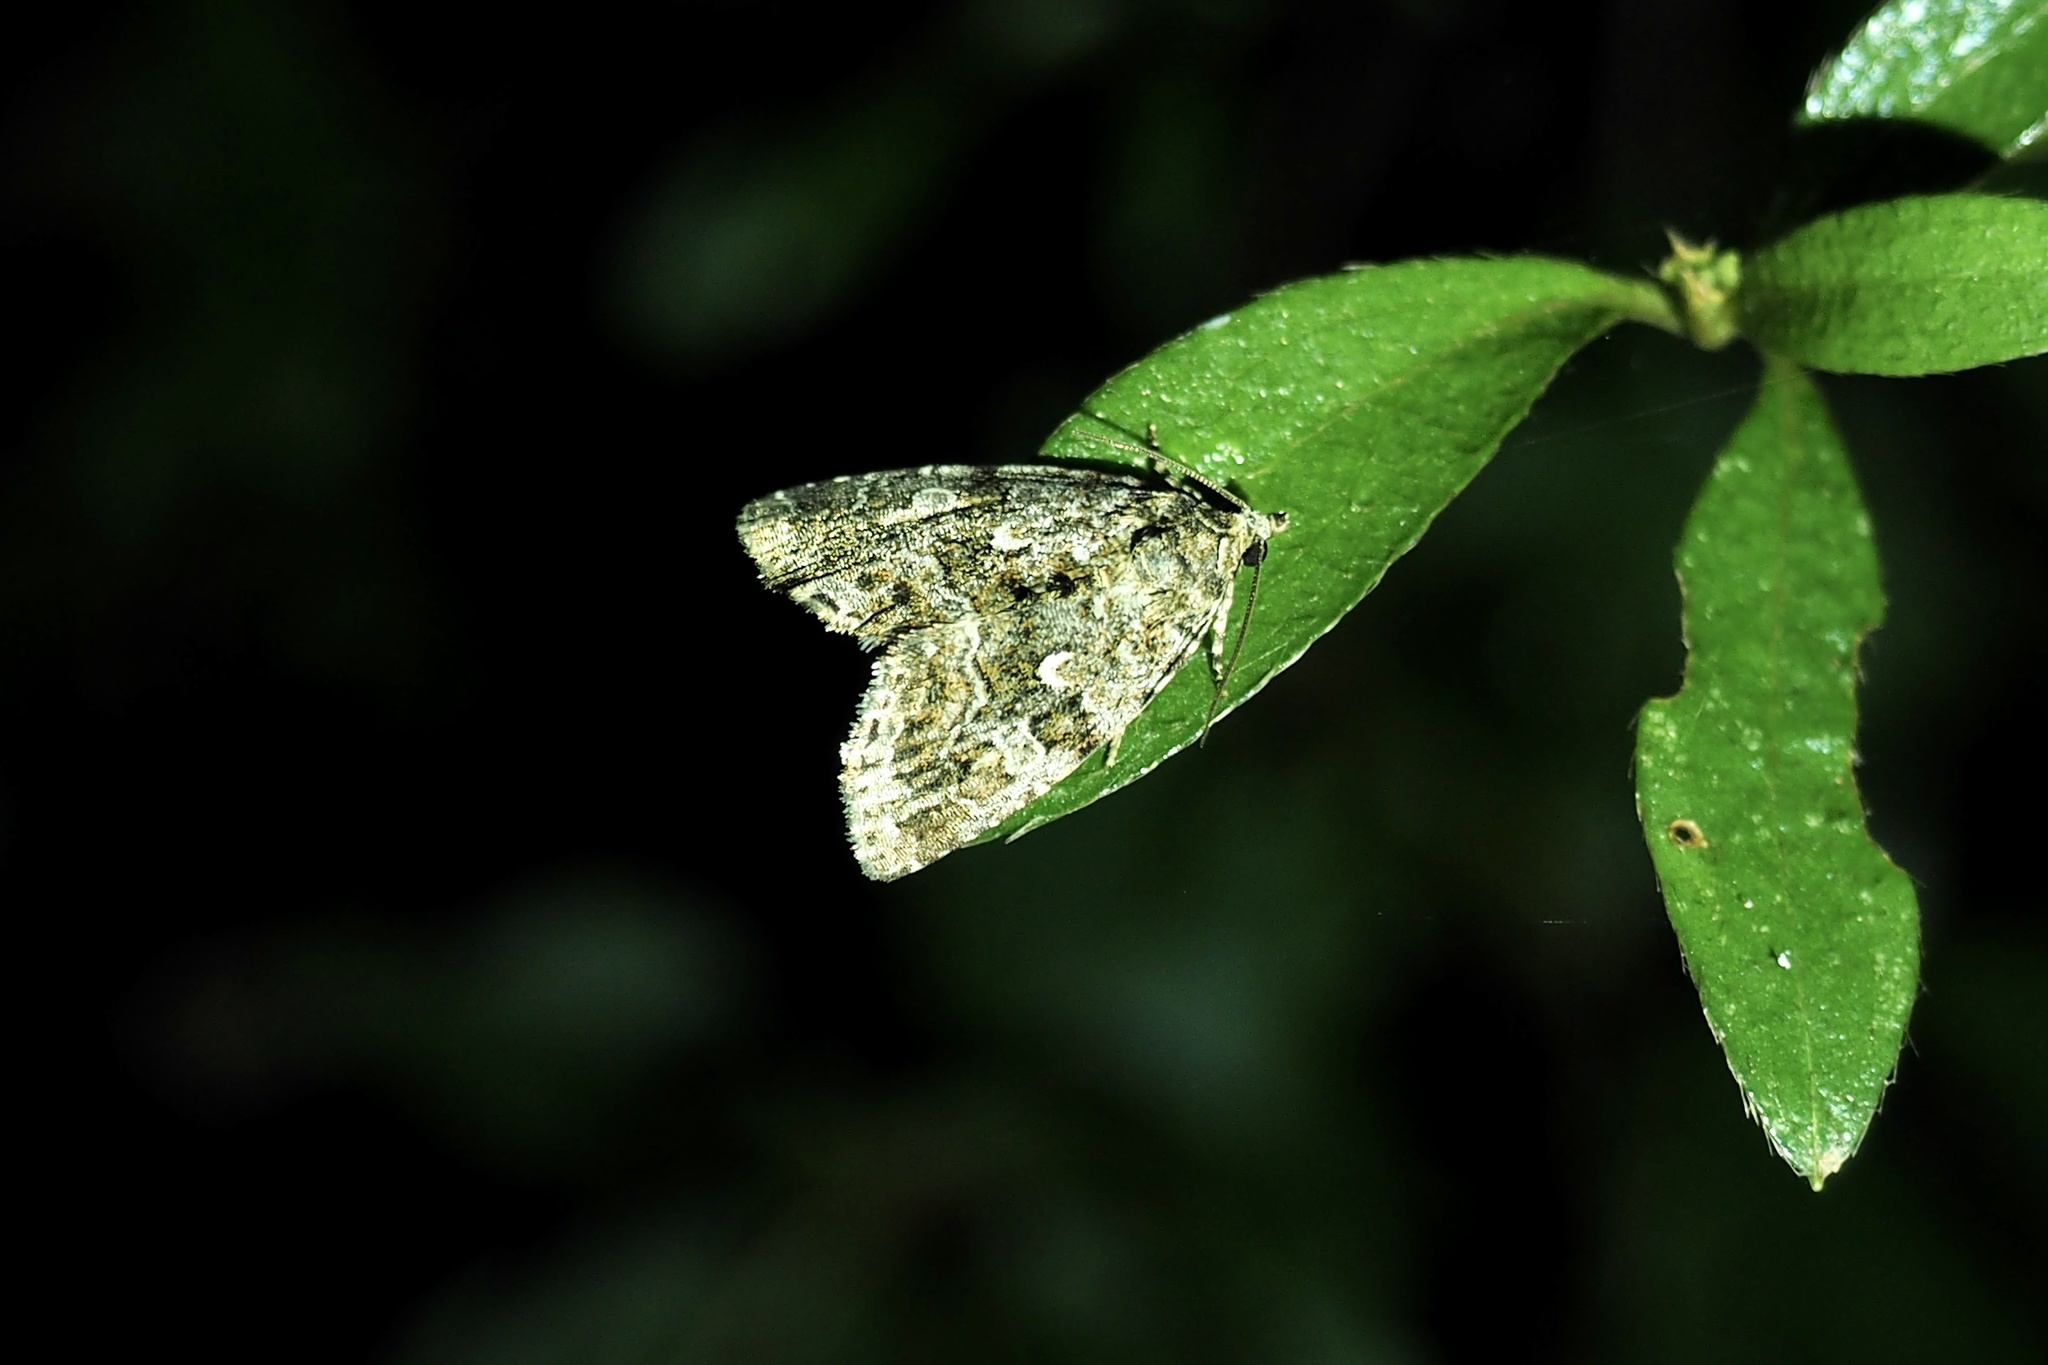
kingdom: Animalia
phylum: Arthropoda
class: Insecta
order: Lepidoptera
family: Noctuidae
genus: Lithacodia
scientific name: Lithacodia distinguenda
